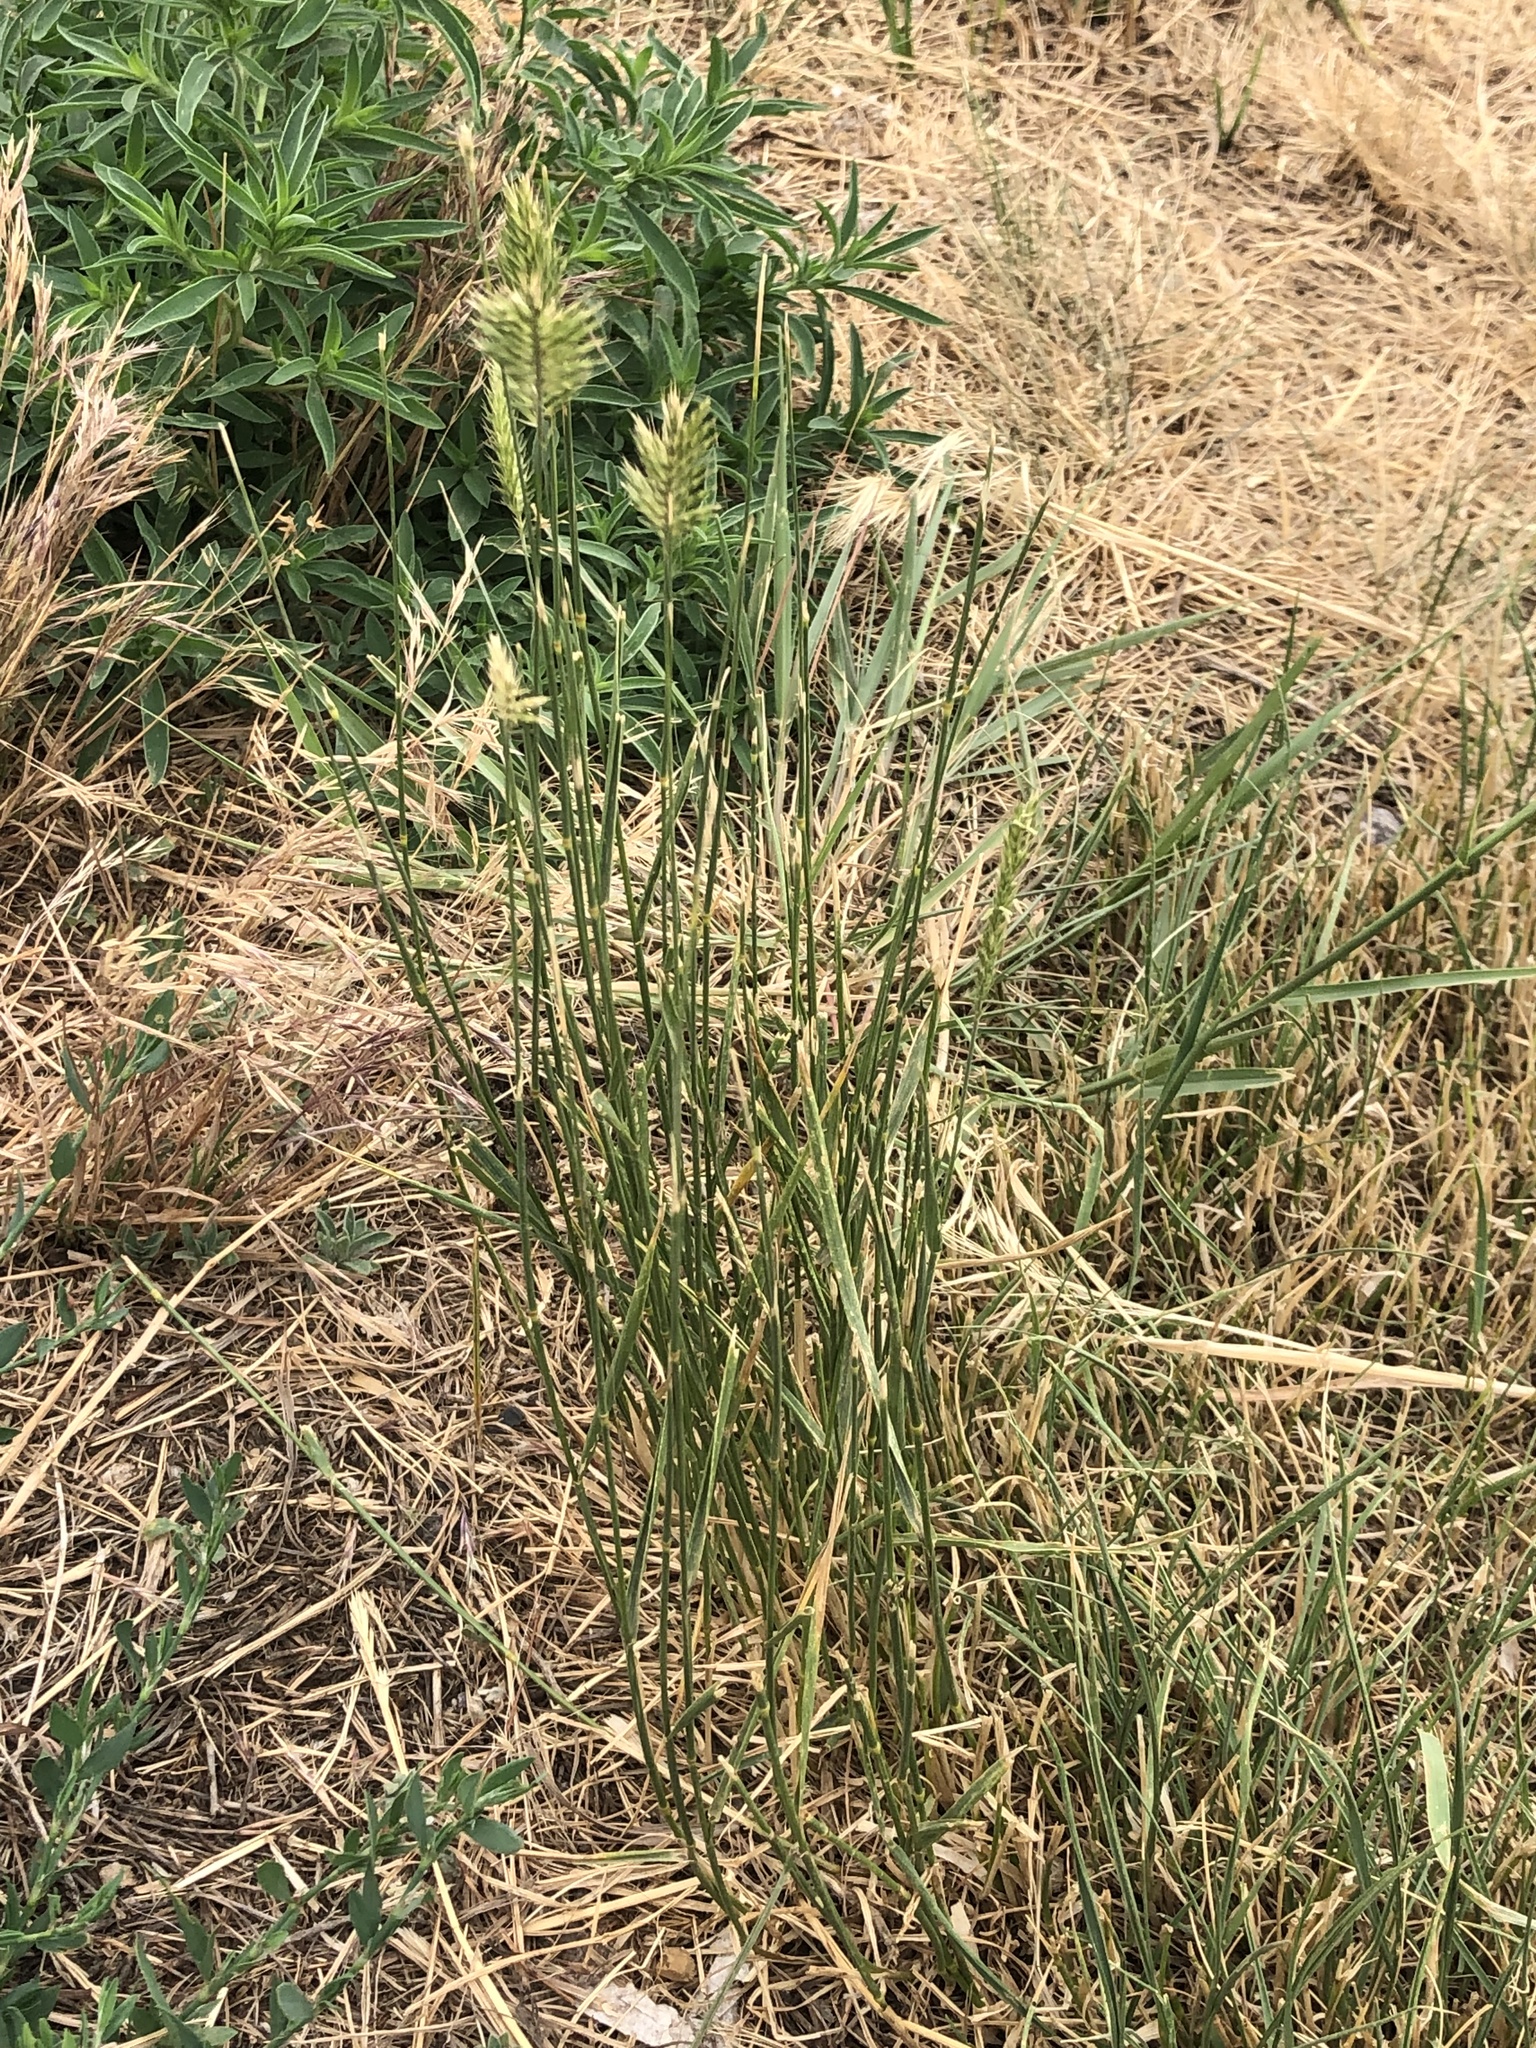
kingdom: Plantae
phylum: Tracheophyta
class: Liliopsida
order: Poales
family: Poaceae
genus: Agropyron
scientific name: Agropyron cristatum
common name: Crested wheatgrass
